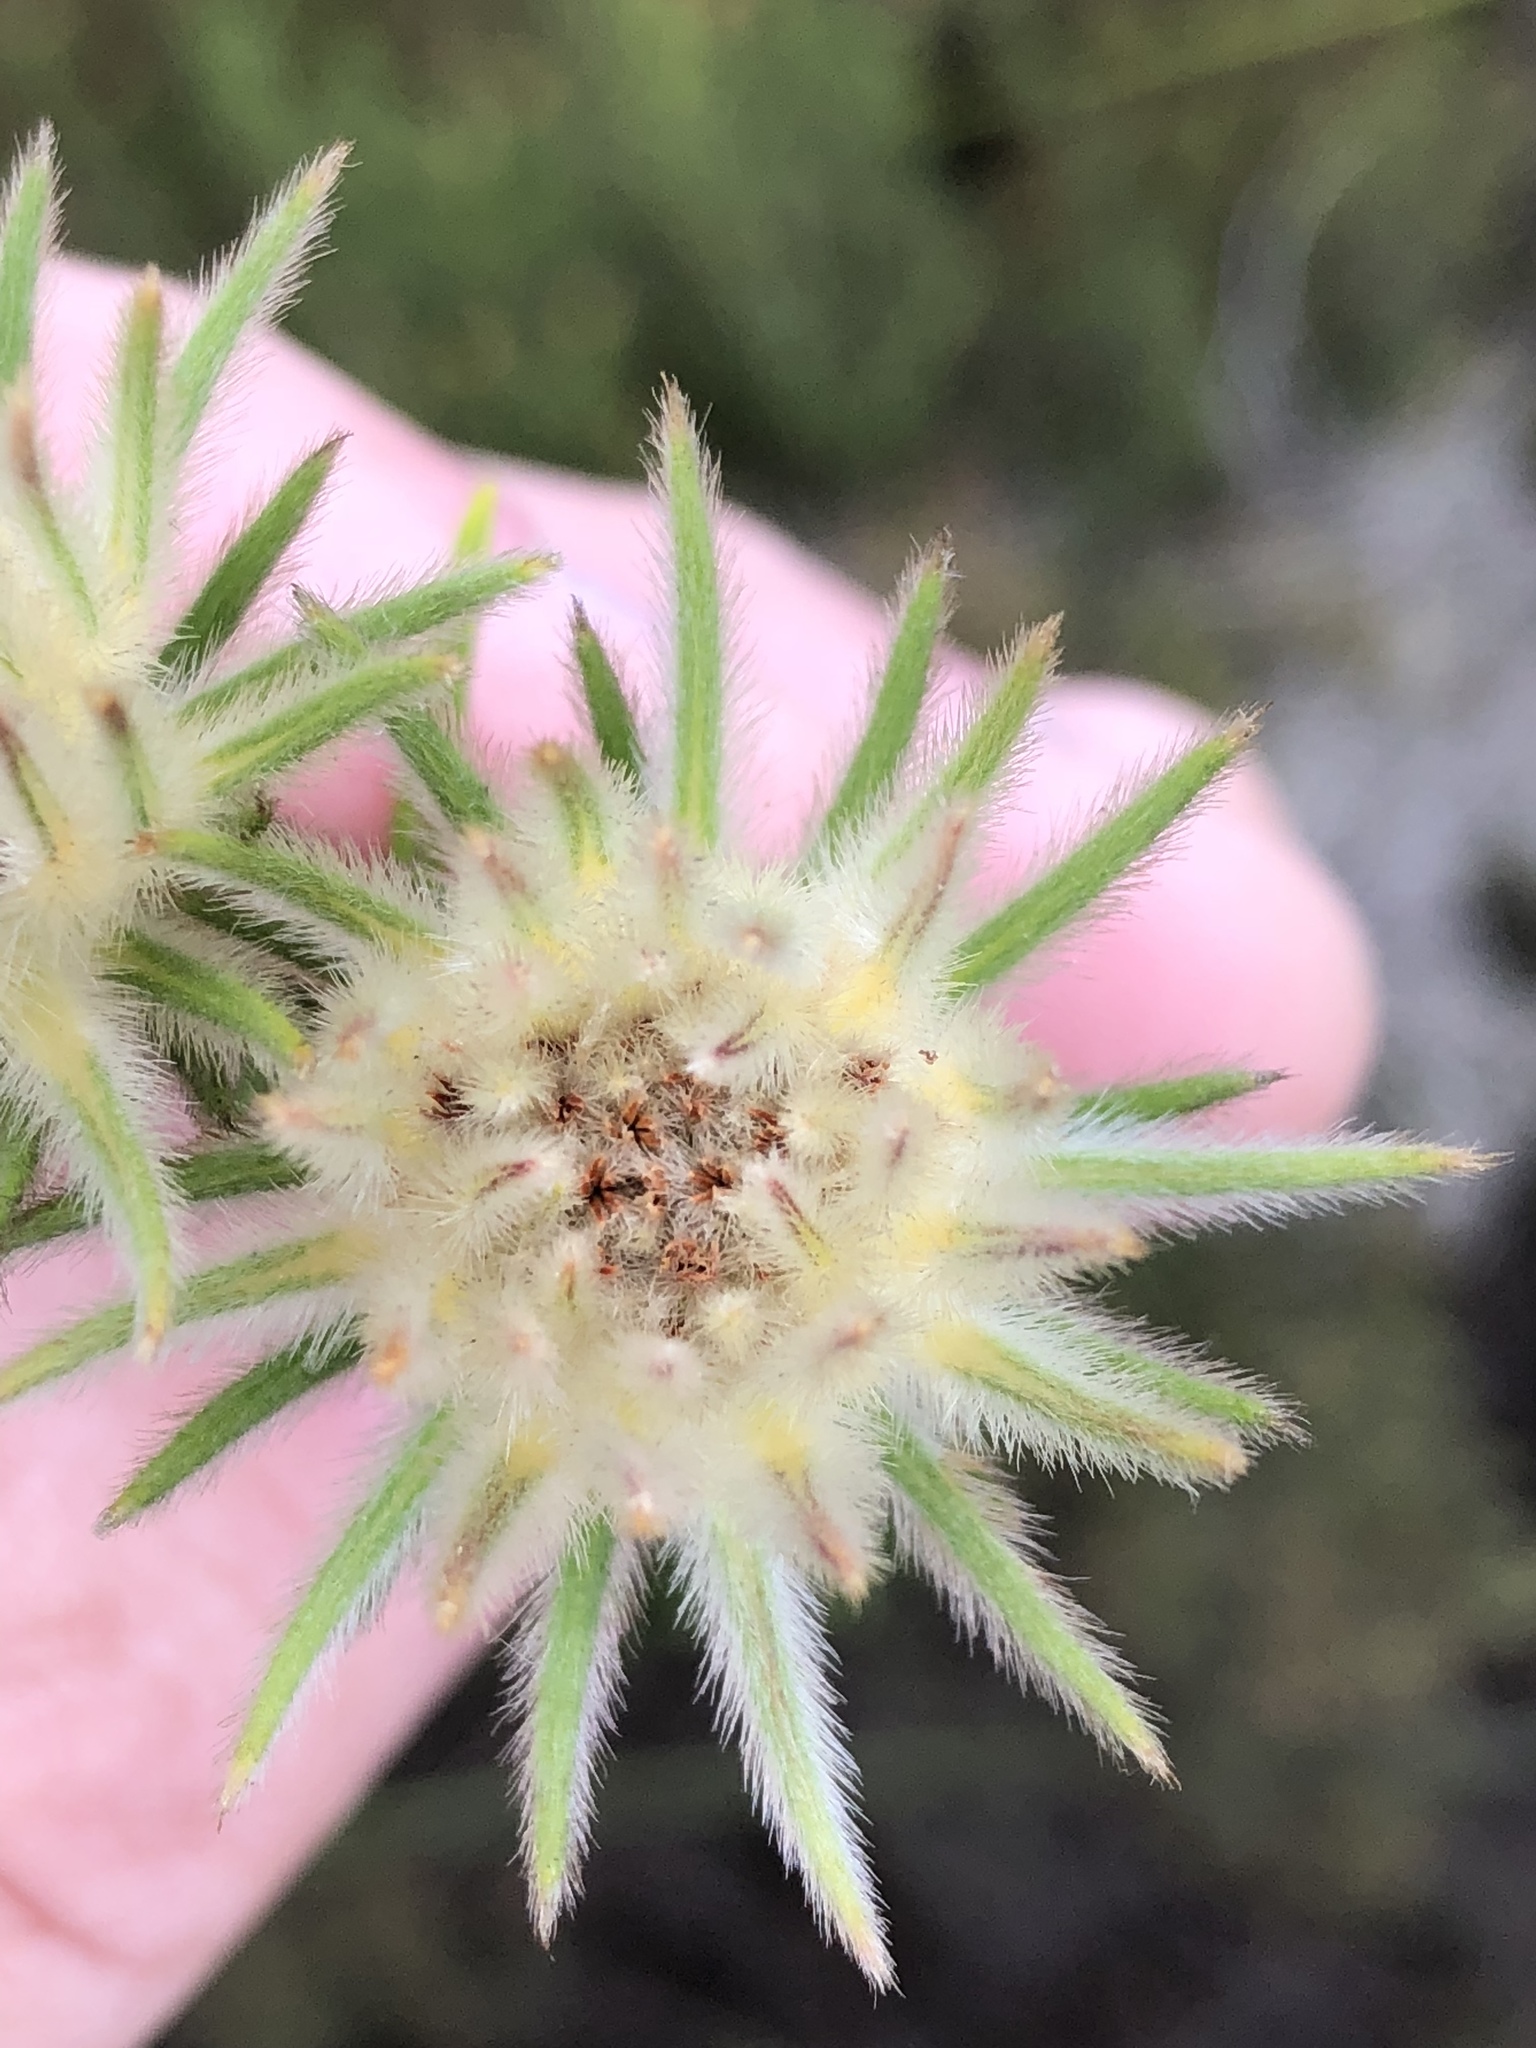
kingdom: Plantae
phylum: Tracheophyta
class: Magnoliopsida
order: Rosales
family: Rhamnaceae
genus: Phylica
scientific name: Phylica pubescens
